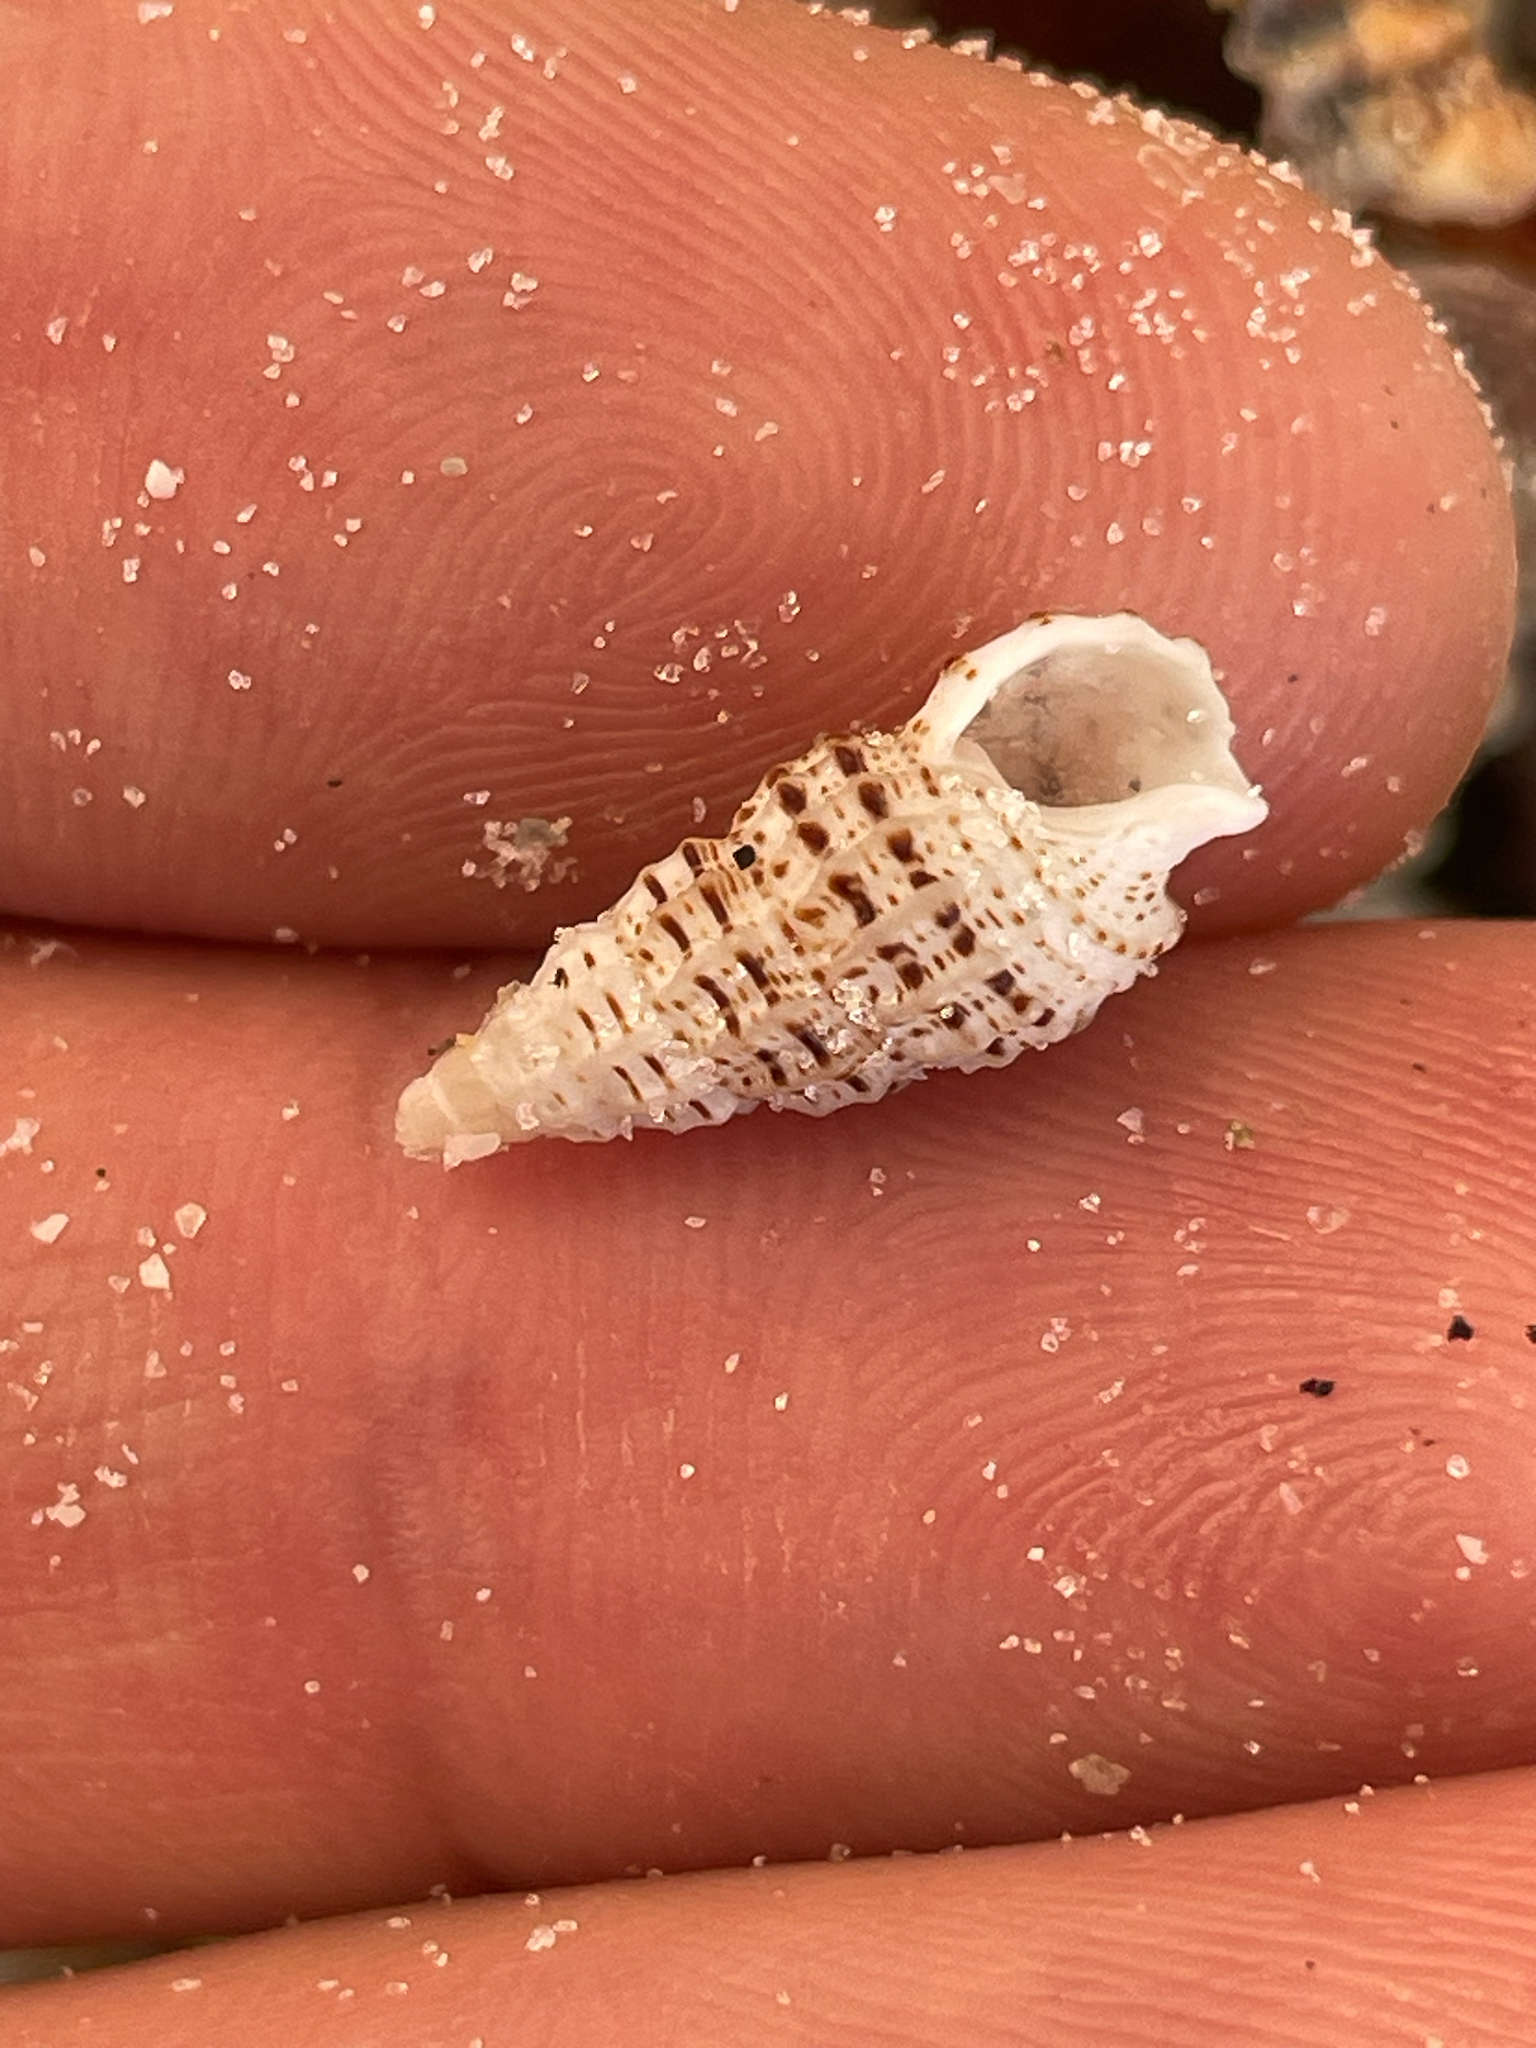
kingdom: Animalia
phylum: Mollusca
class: Gastropoda
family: Cerithiidae
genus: Cerithium
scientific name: Cerithium muscarum
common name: Fly-specked cerith
